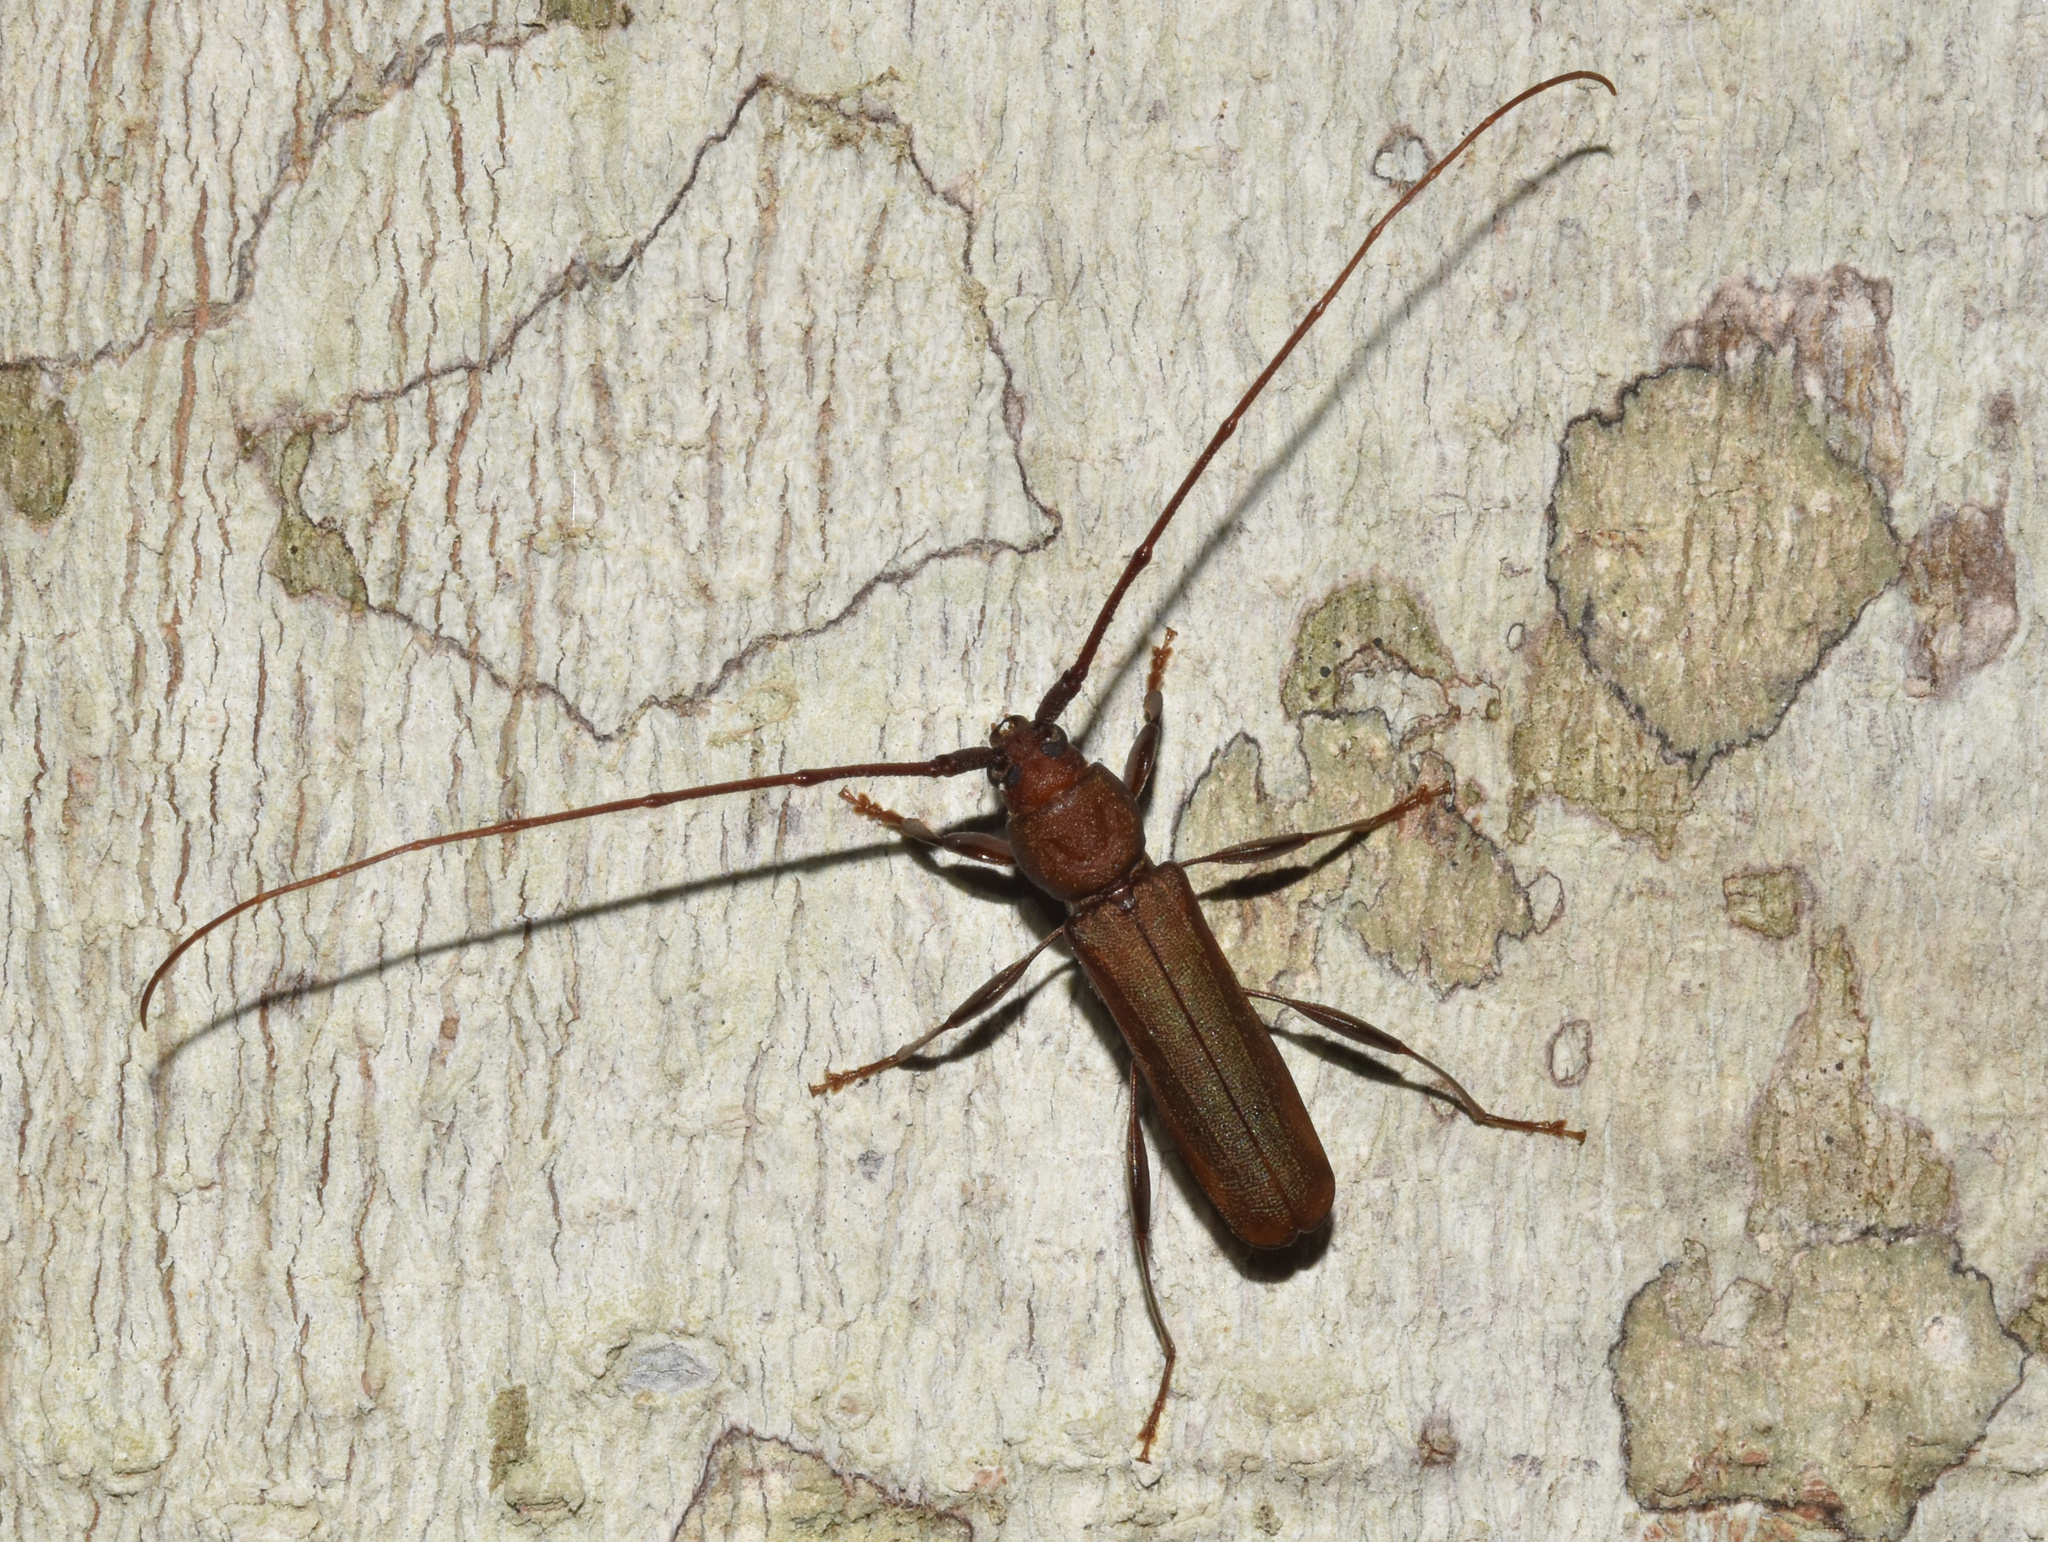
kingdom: Animalia
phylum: Arthropoda
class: Insecta
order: Coleoptera
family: Cerambycidae
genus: Xystrocera
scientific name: Xystrocera erosa
